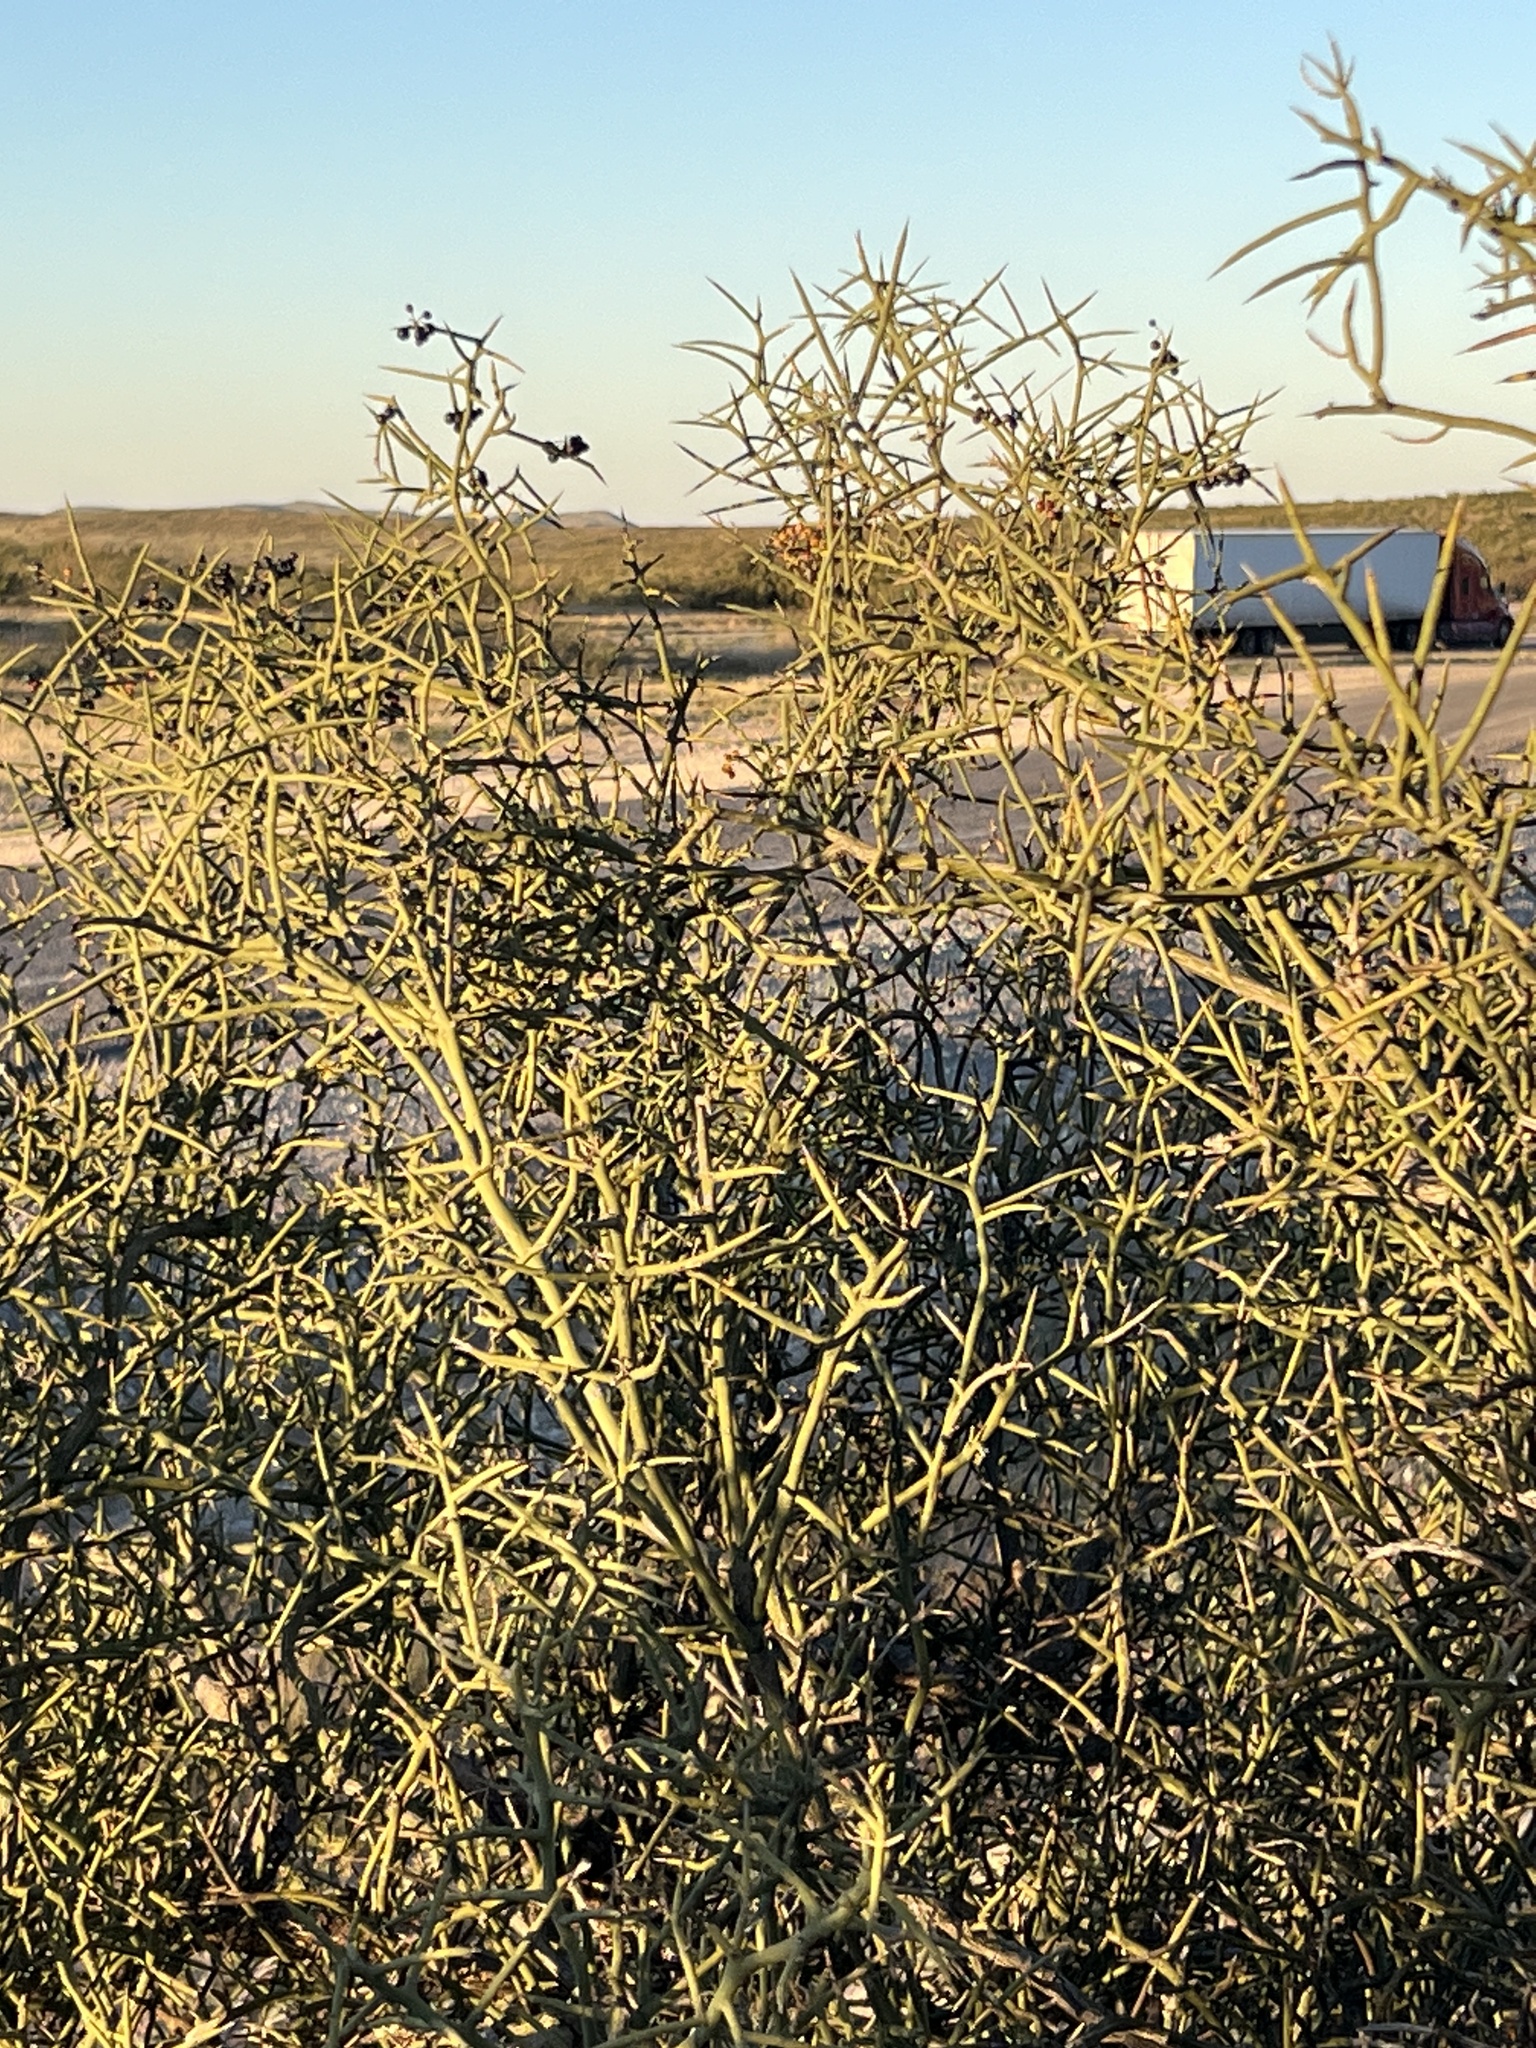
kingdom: Plantae
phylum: Tracheophyta
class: Magnoliopsida
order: Brassicales
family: Koeberliniaceae
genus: Koeberlinia
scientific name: Koeberlinia spinosa
